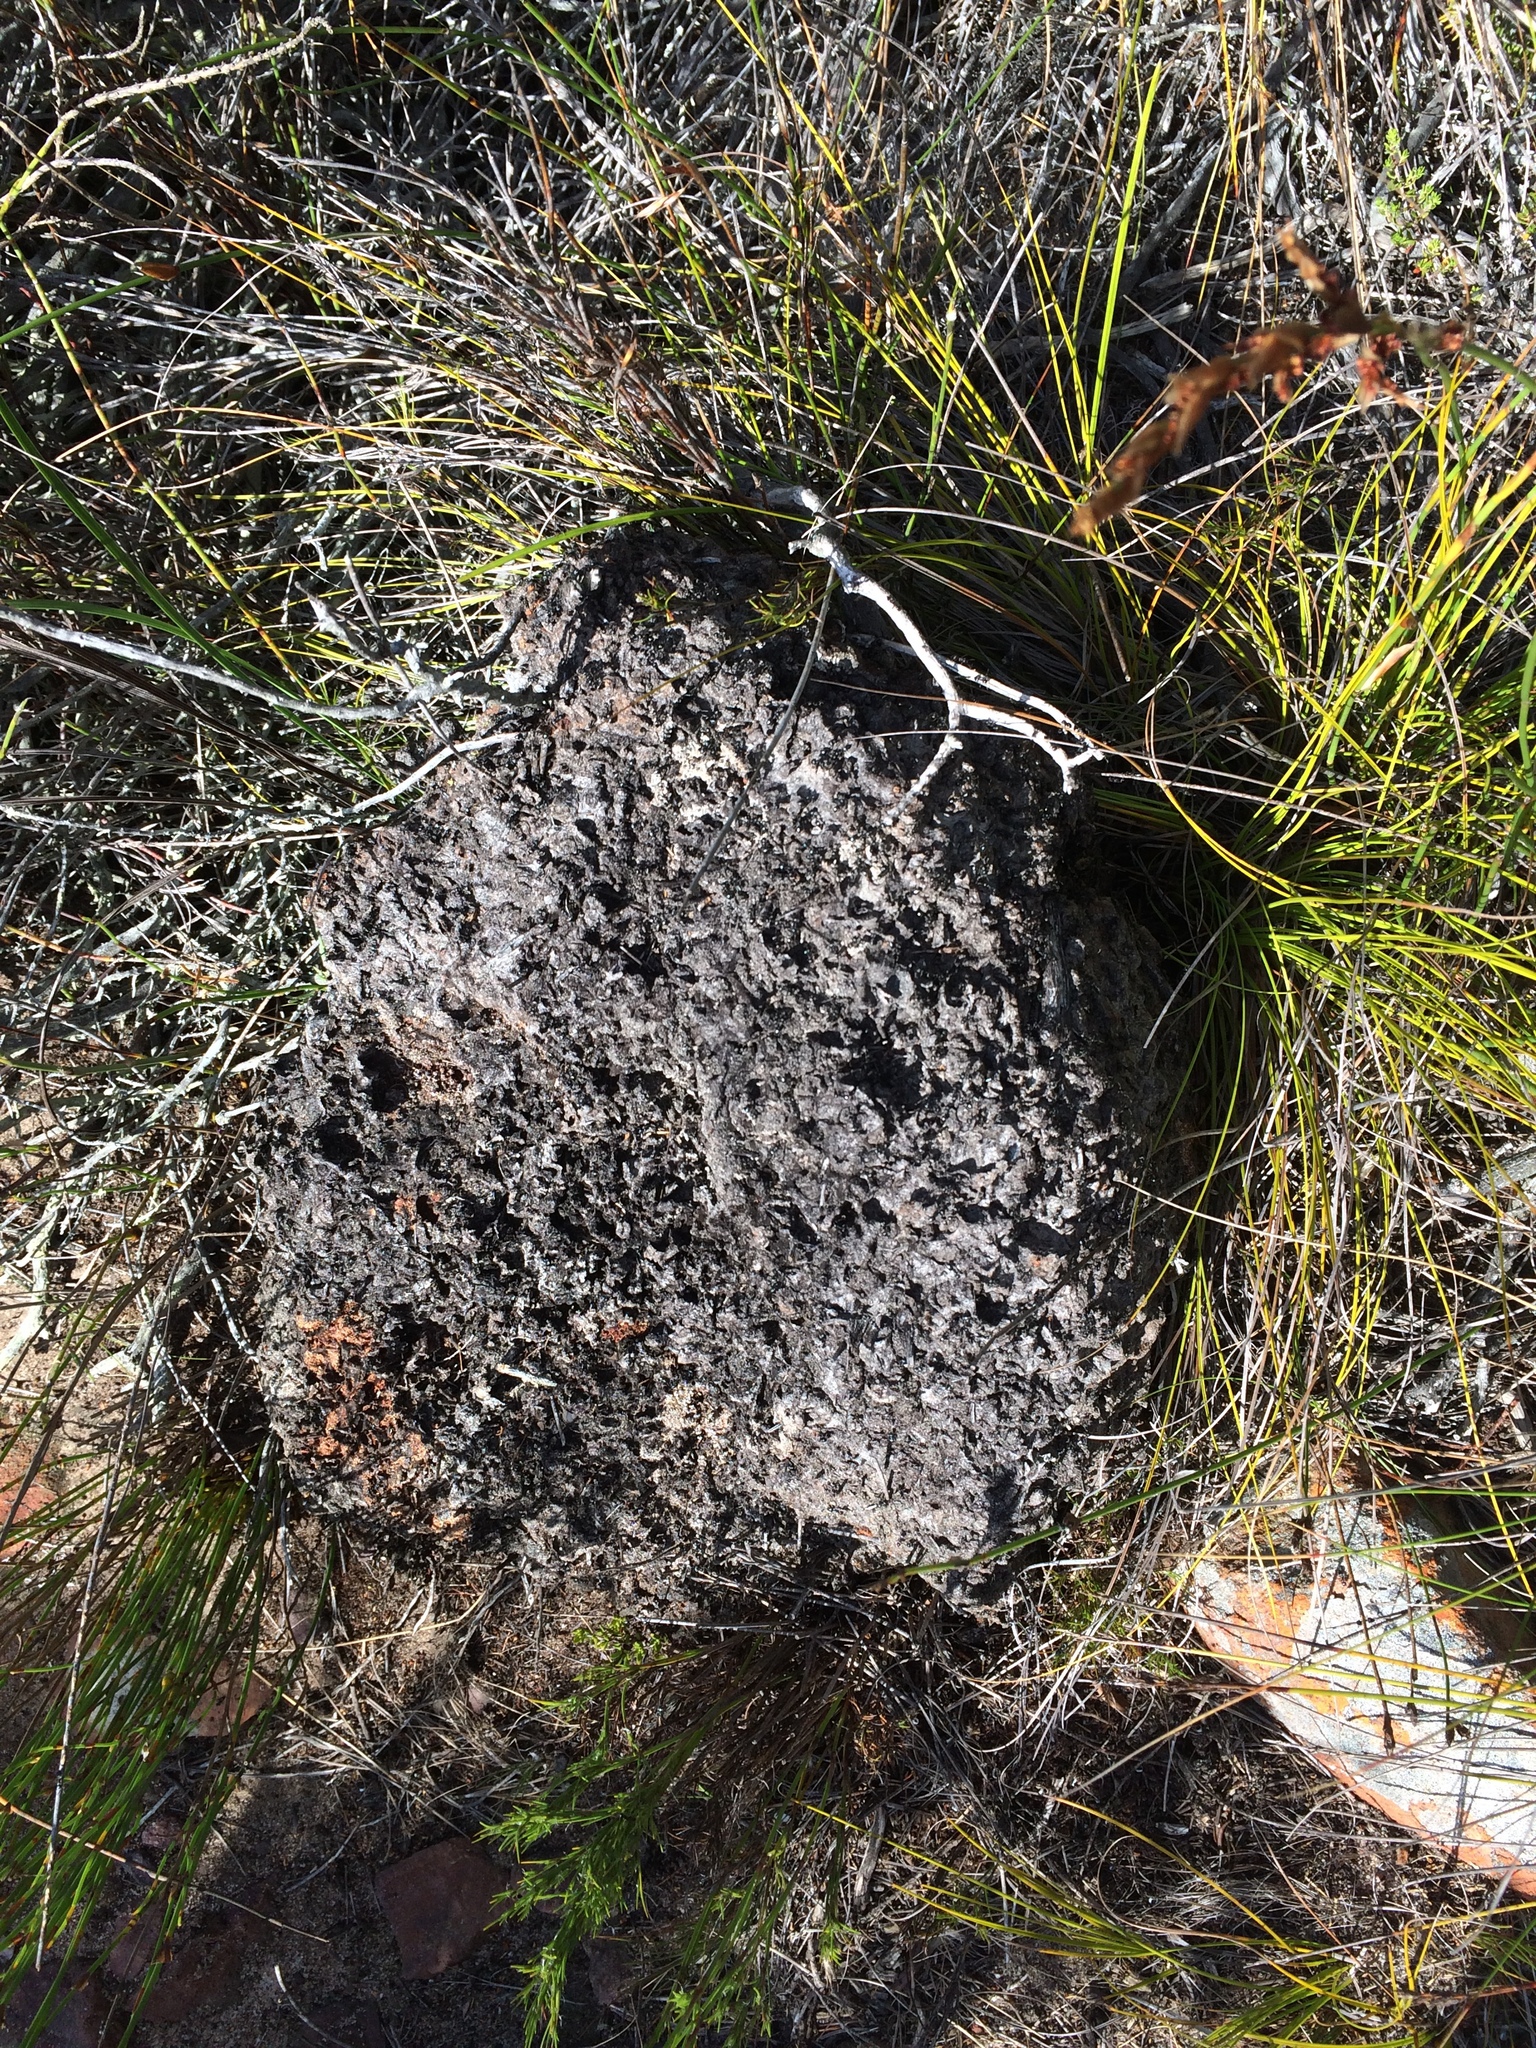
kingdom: Animalia
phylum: Arthropoda
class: Insecta
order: Hymenoptera
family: Formicidae
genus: Crematogaster
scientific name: Crematogaster peringueyi
